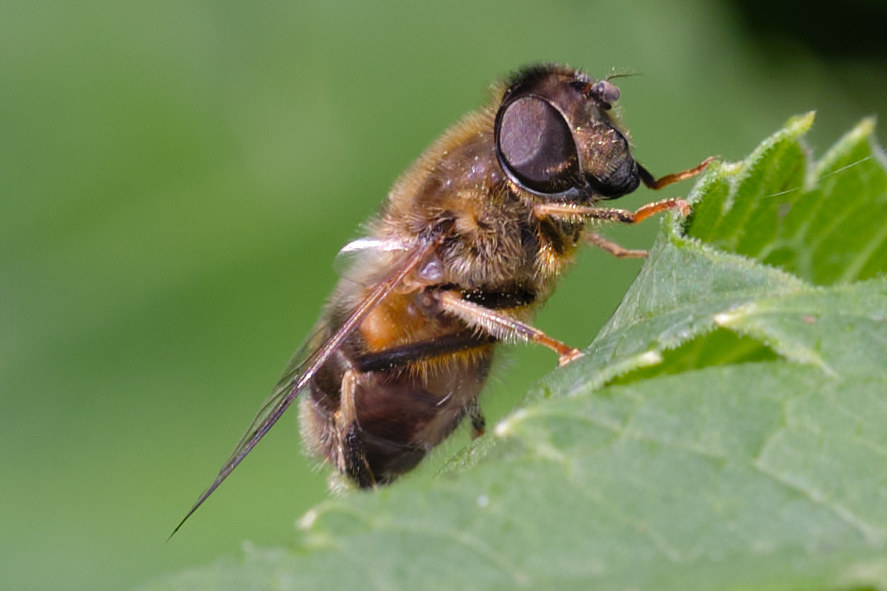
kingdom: Animalia
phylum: Arthropoda
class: Insecta
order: Diptera
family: Syrphidae
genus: Eristalis
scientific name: Eristalis pertinax
